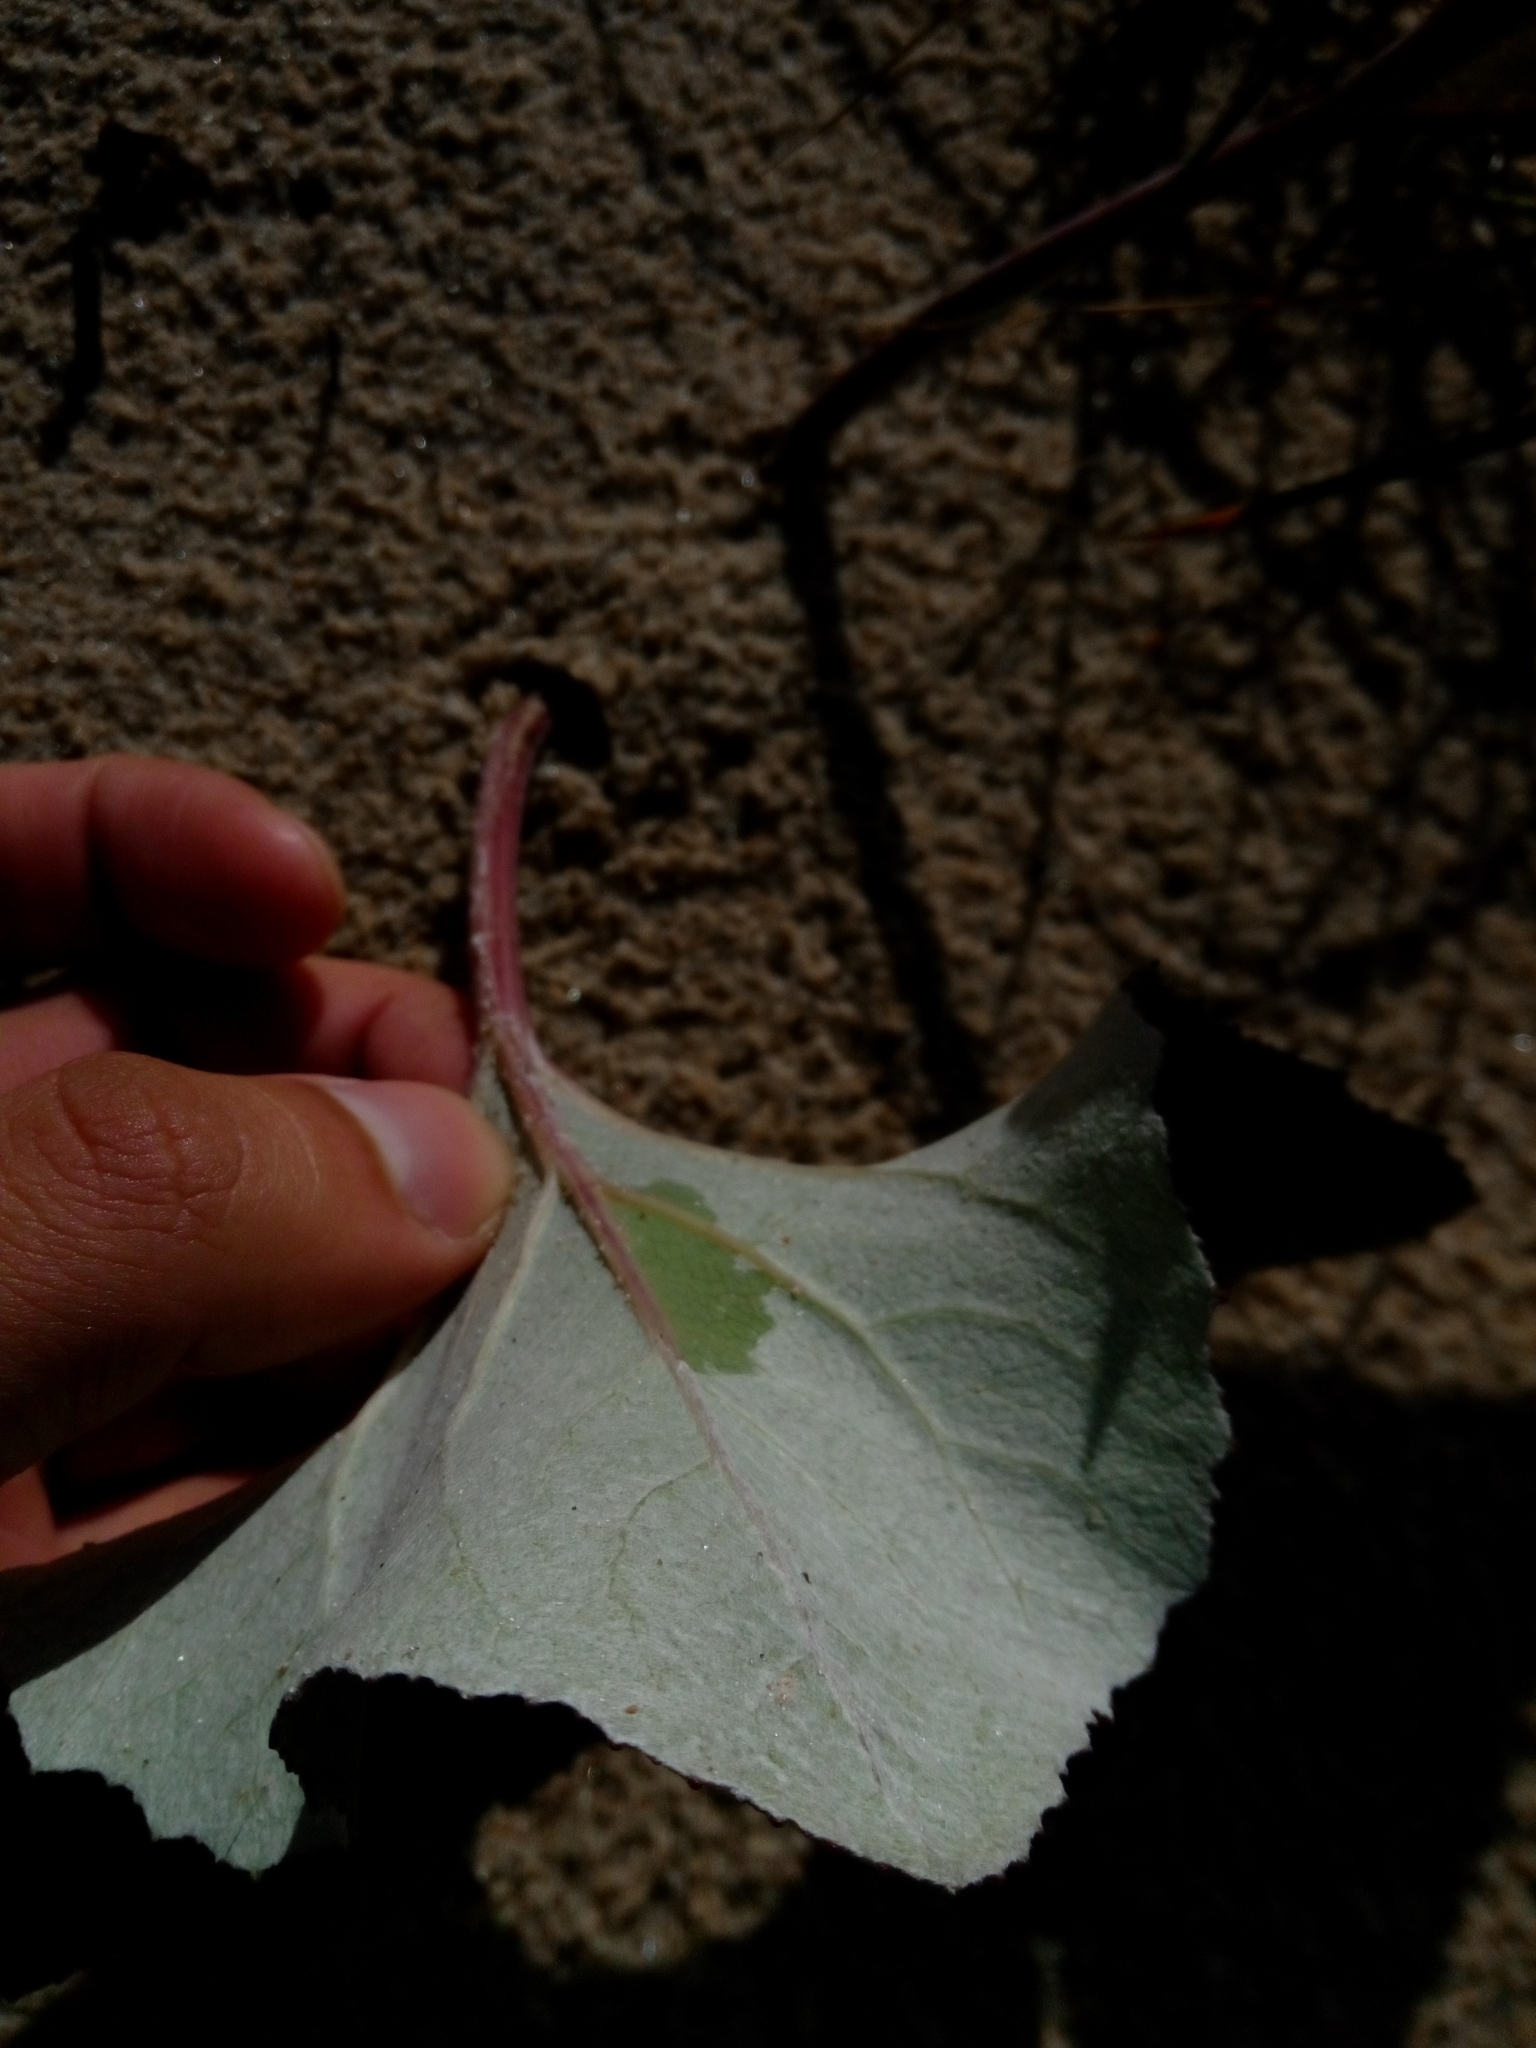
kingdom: Plantae
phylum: Tracheophyta
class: Magnoliopsida
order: Asterales
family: Asteraceae
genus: Petasites
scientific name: Petasites spurius
